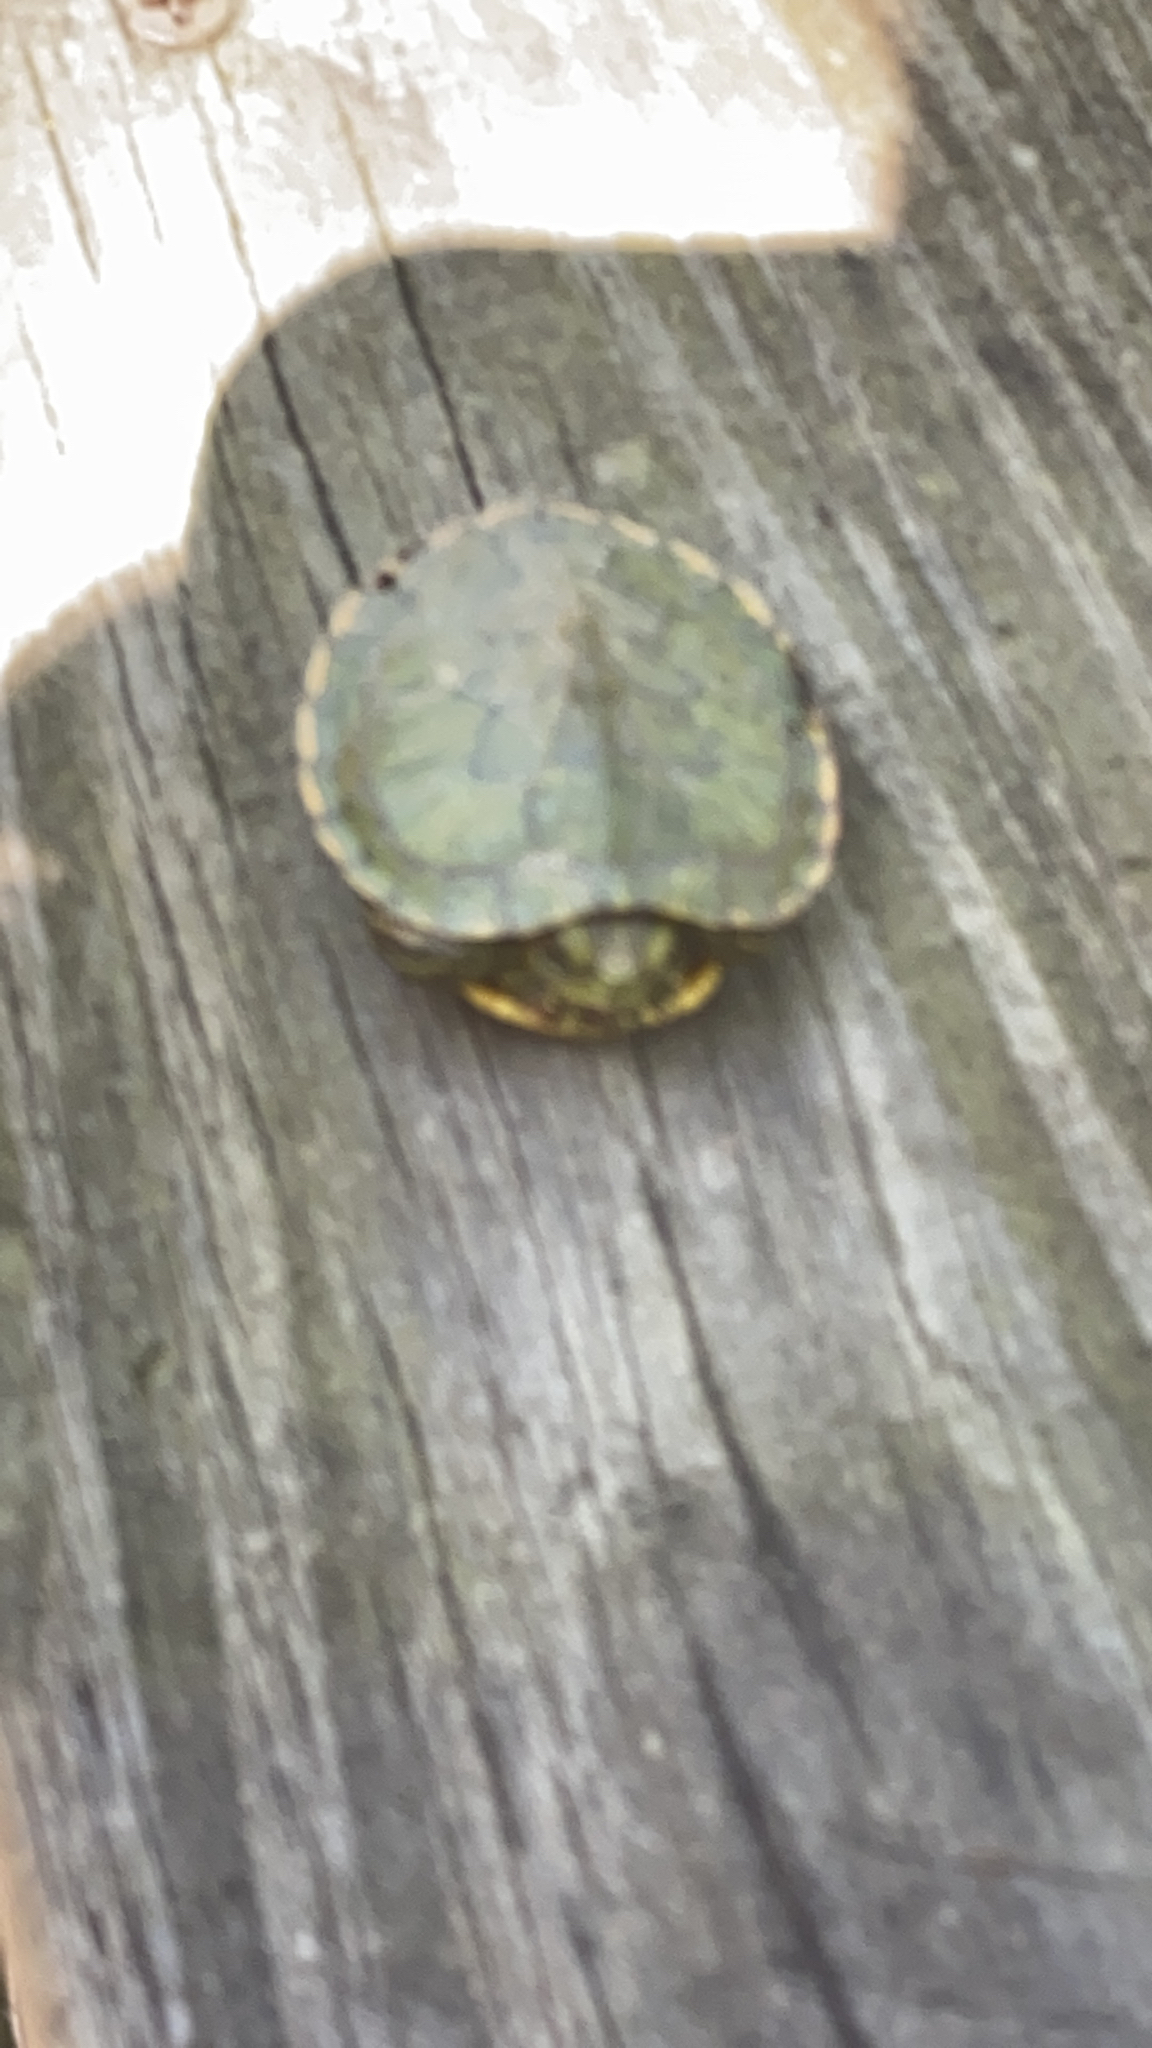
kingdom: Animalia
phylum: Chordata
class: Testudines
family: Emydidae
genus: Trachemys
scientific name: Trachemys scripta
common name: Slider
